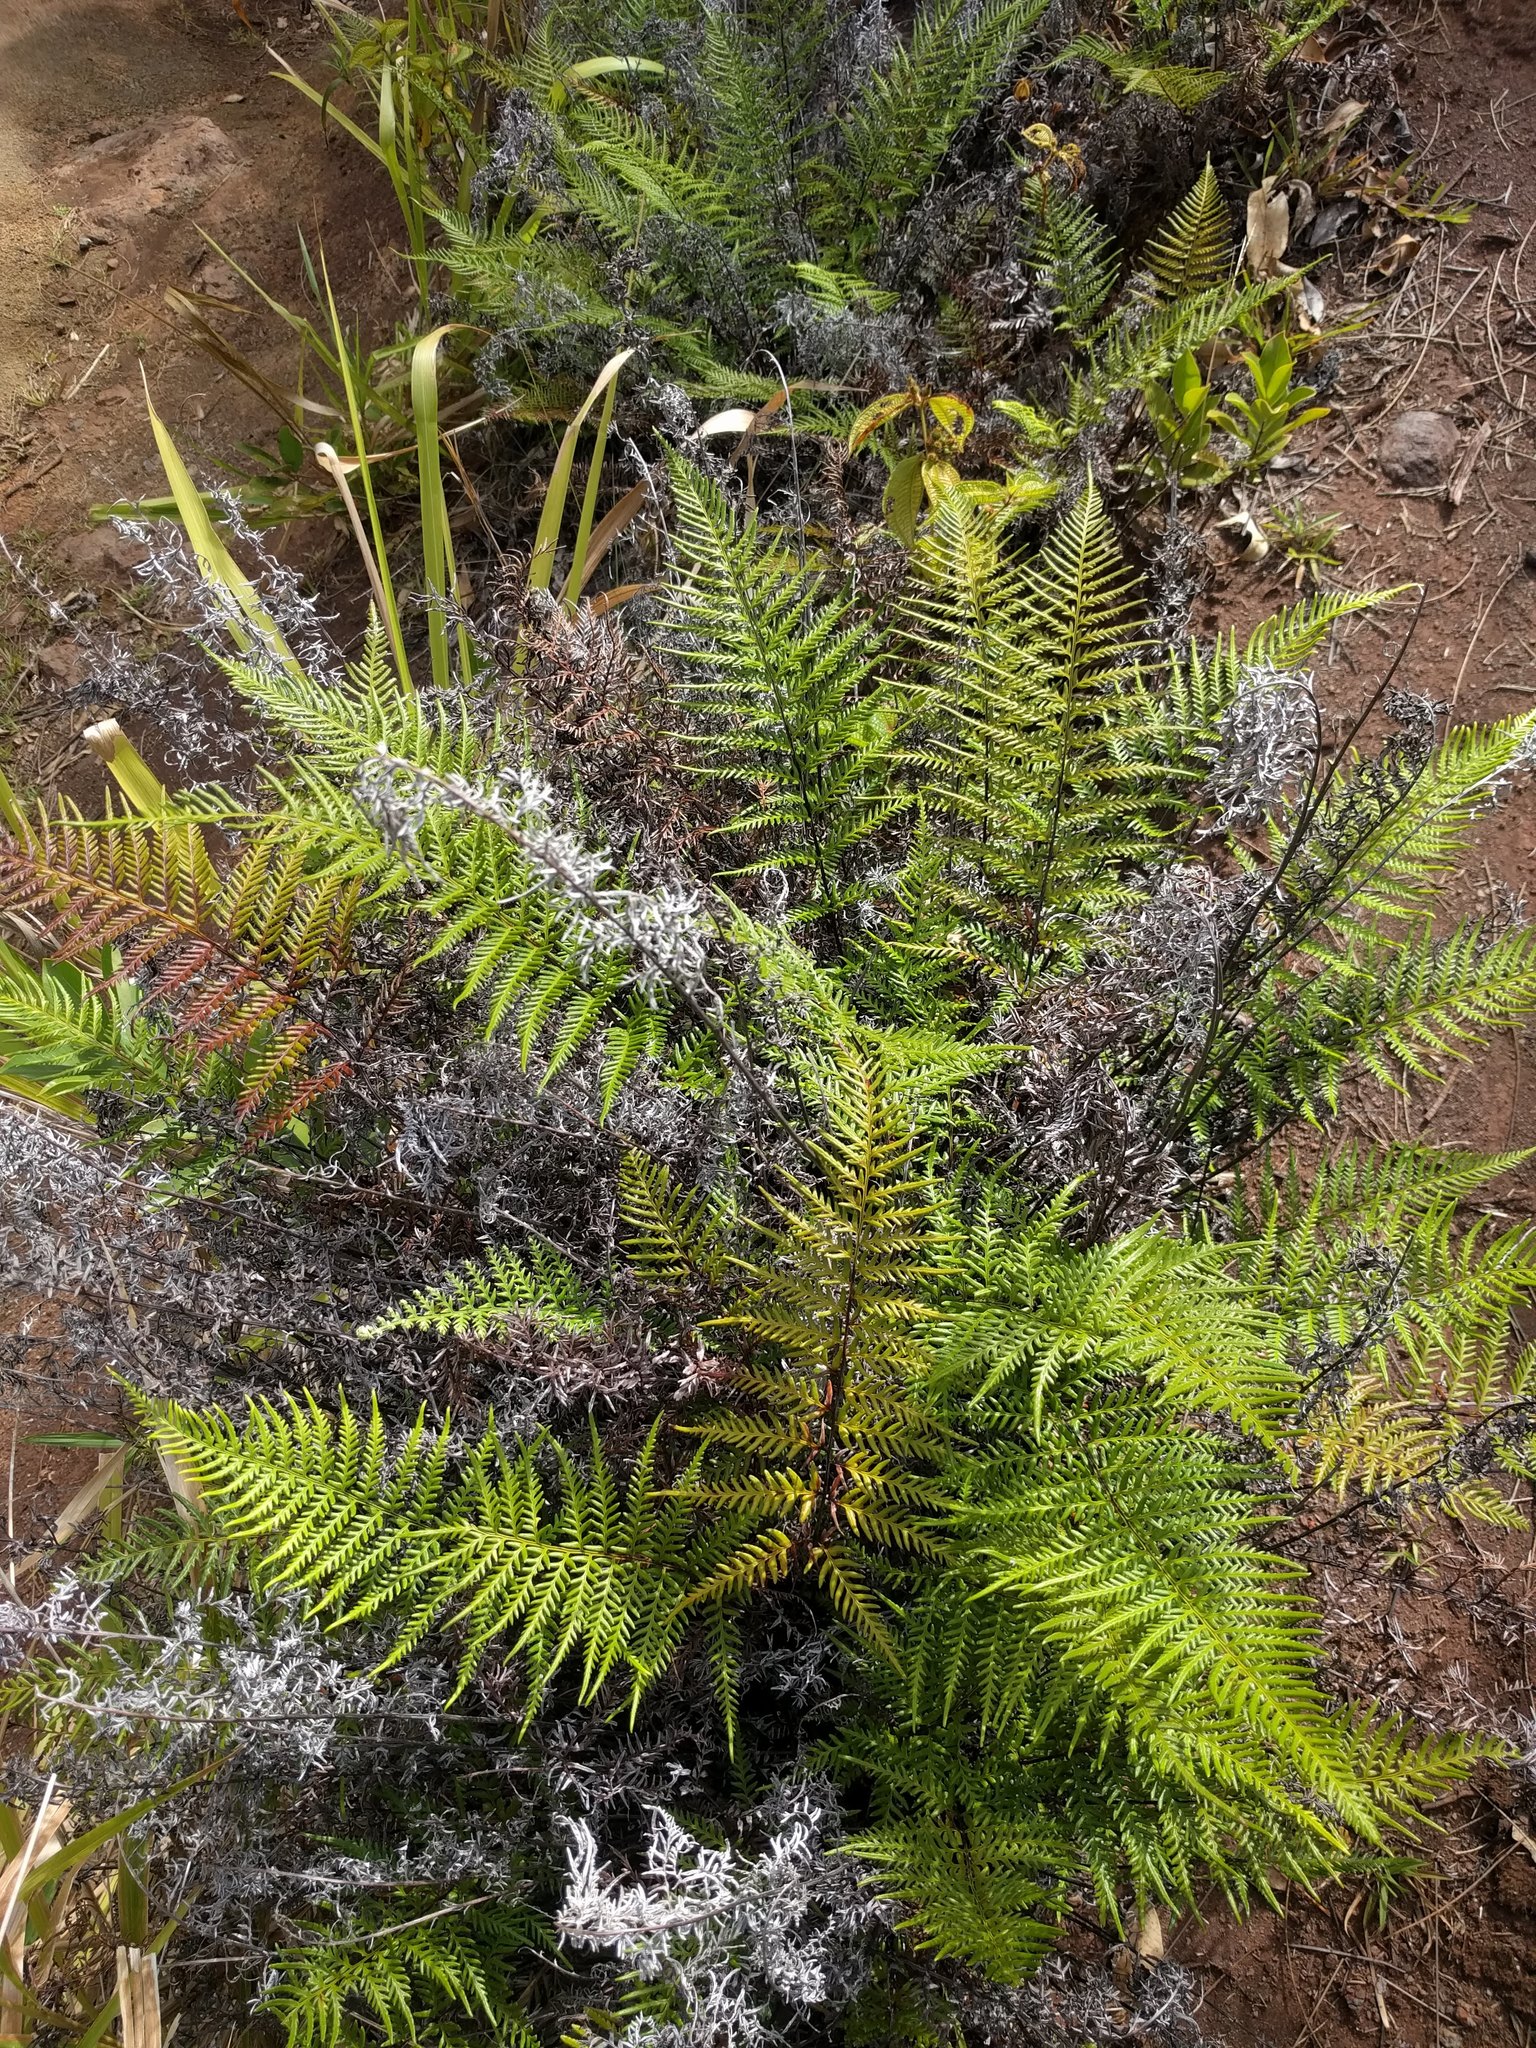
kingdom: Plantae
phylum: Tracheophyta
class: Polypodiopsida
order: Polypodiales
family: Pteridaceae
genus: Pityrogramma
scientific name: Pityrogramma calomelanos
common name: Dixie silverback fern
